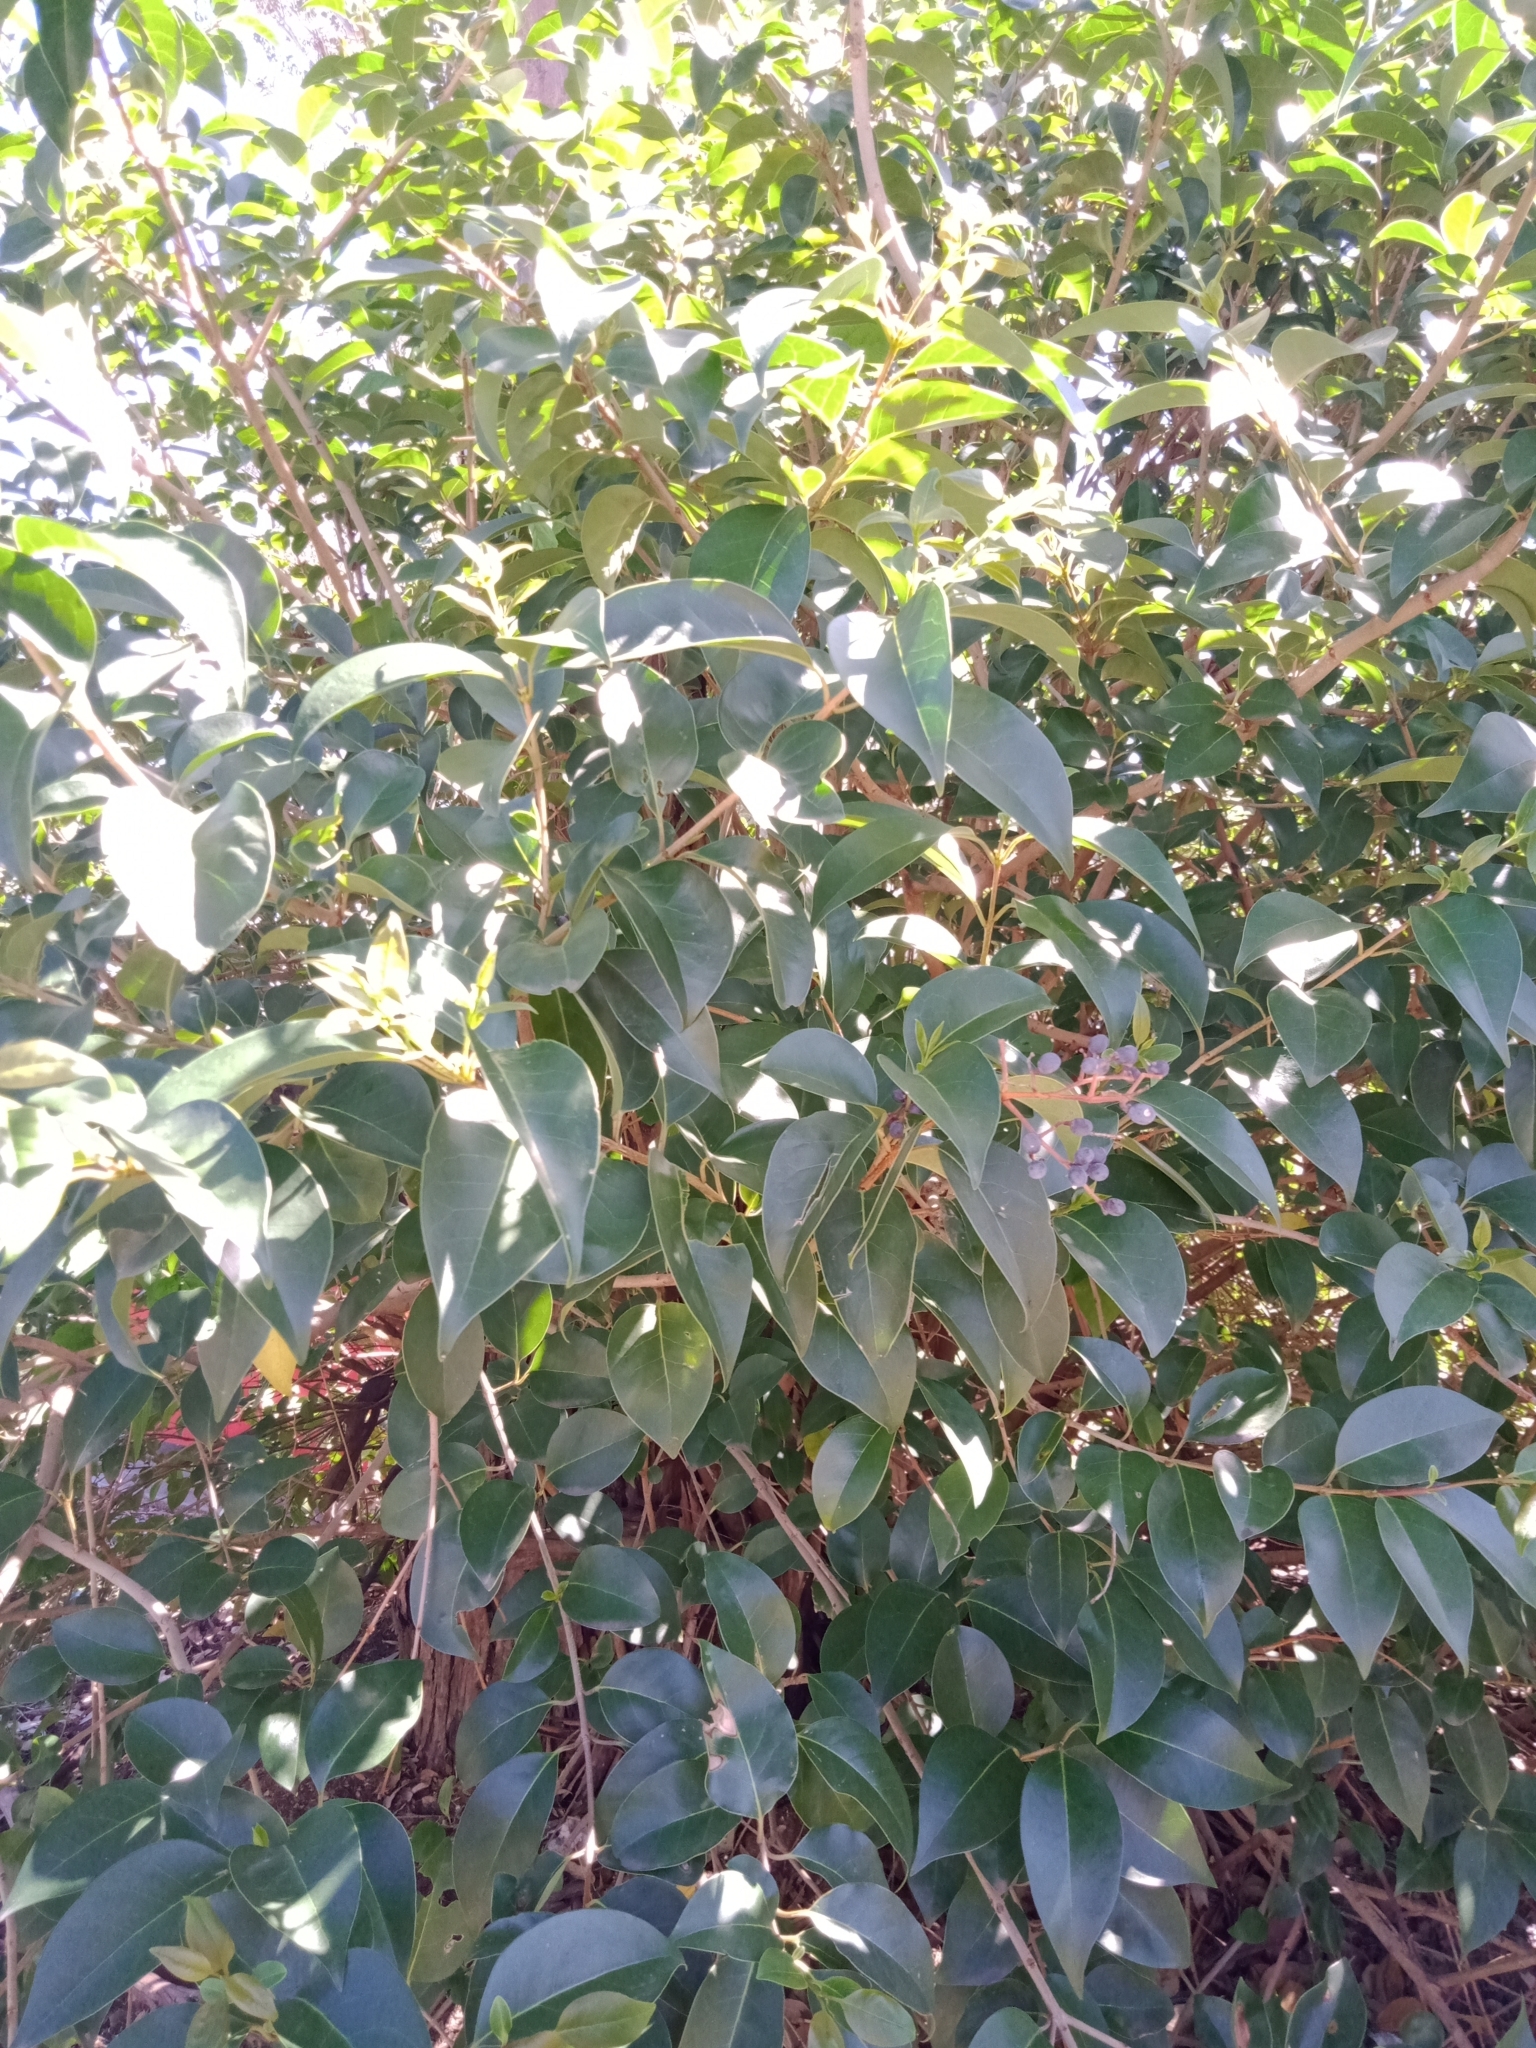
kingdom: Plantae
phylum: Tracheophyta
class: Magnoliopsida
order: Lamiales
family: Oleaceae
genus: Ligustrum
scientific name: Ligustrum lucidum
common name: Glossy privet
